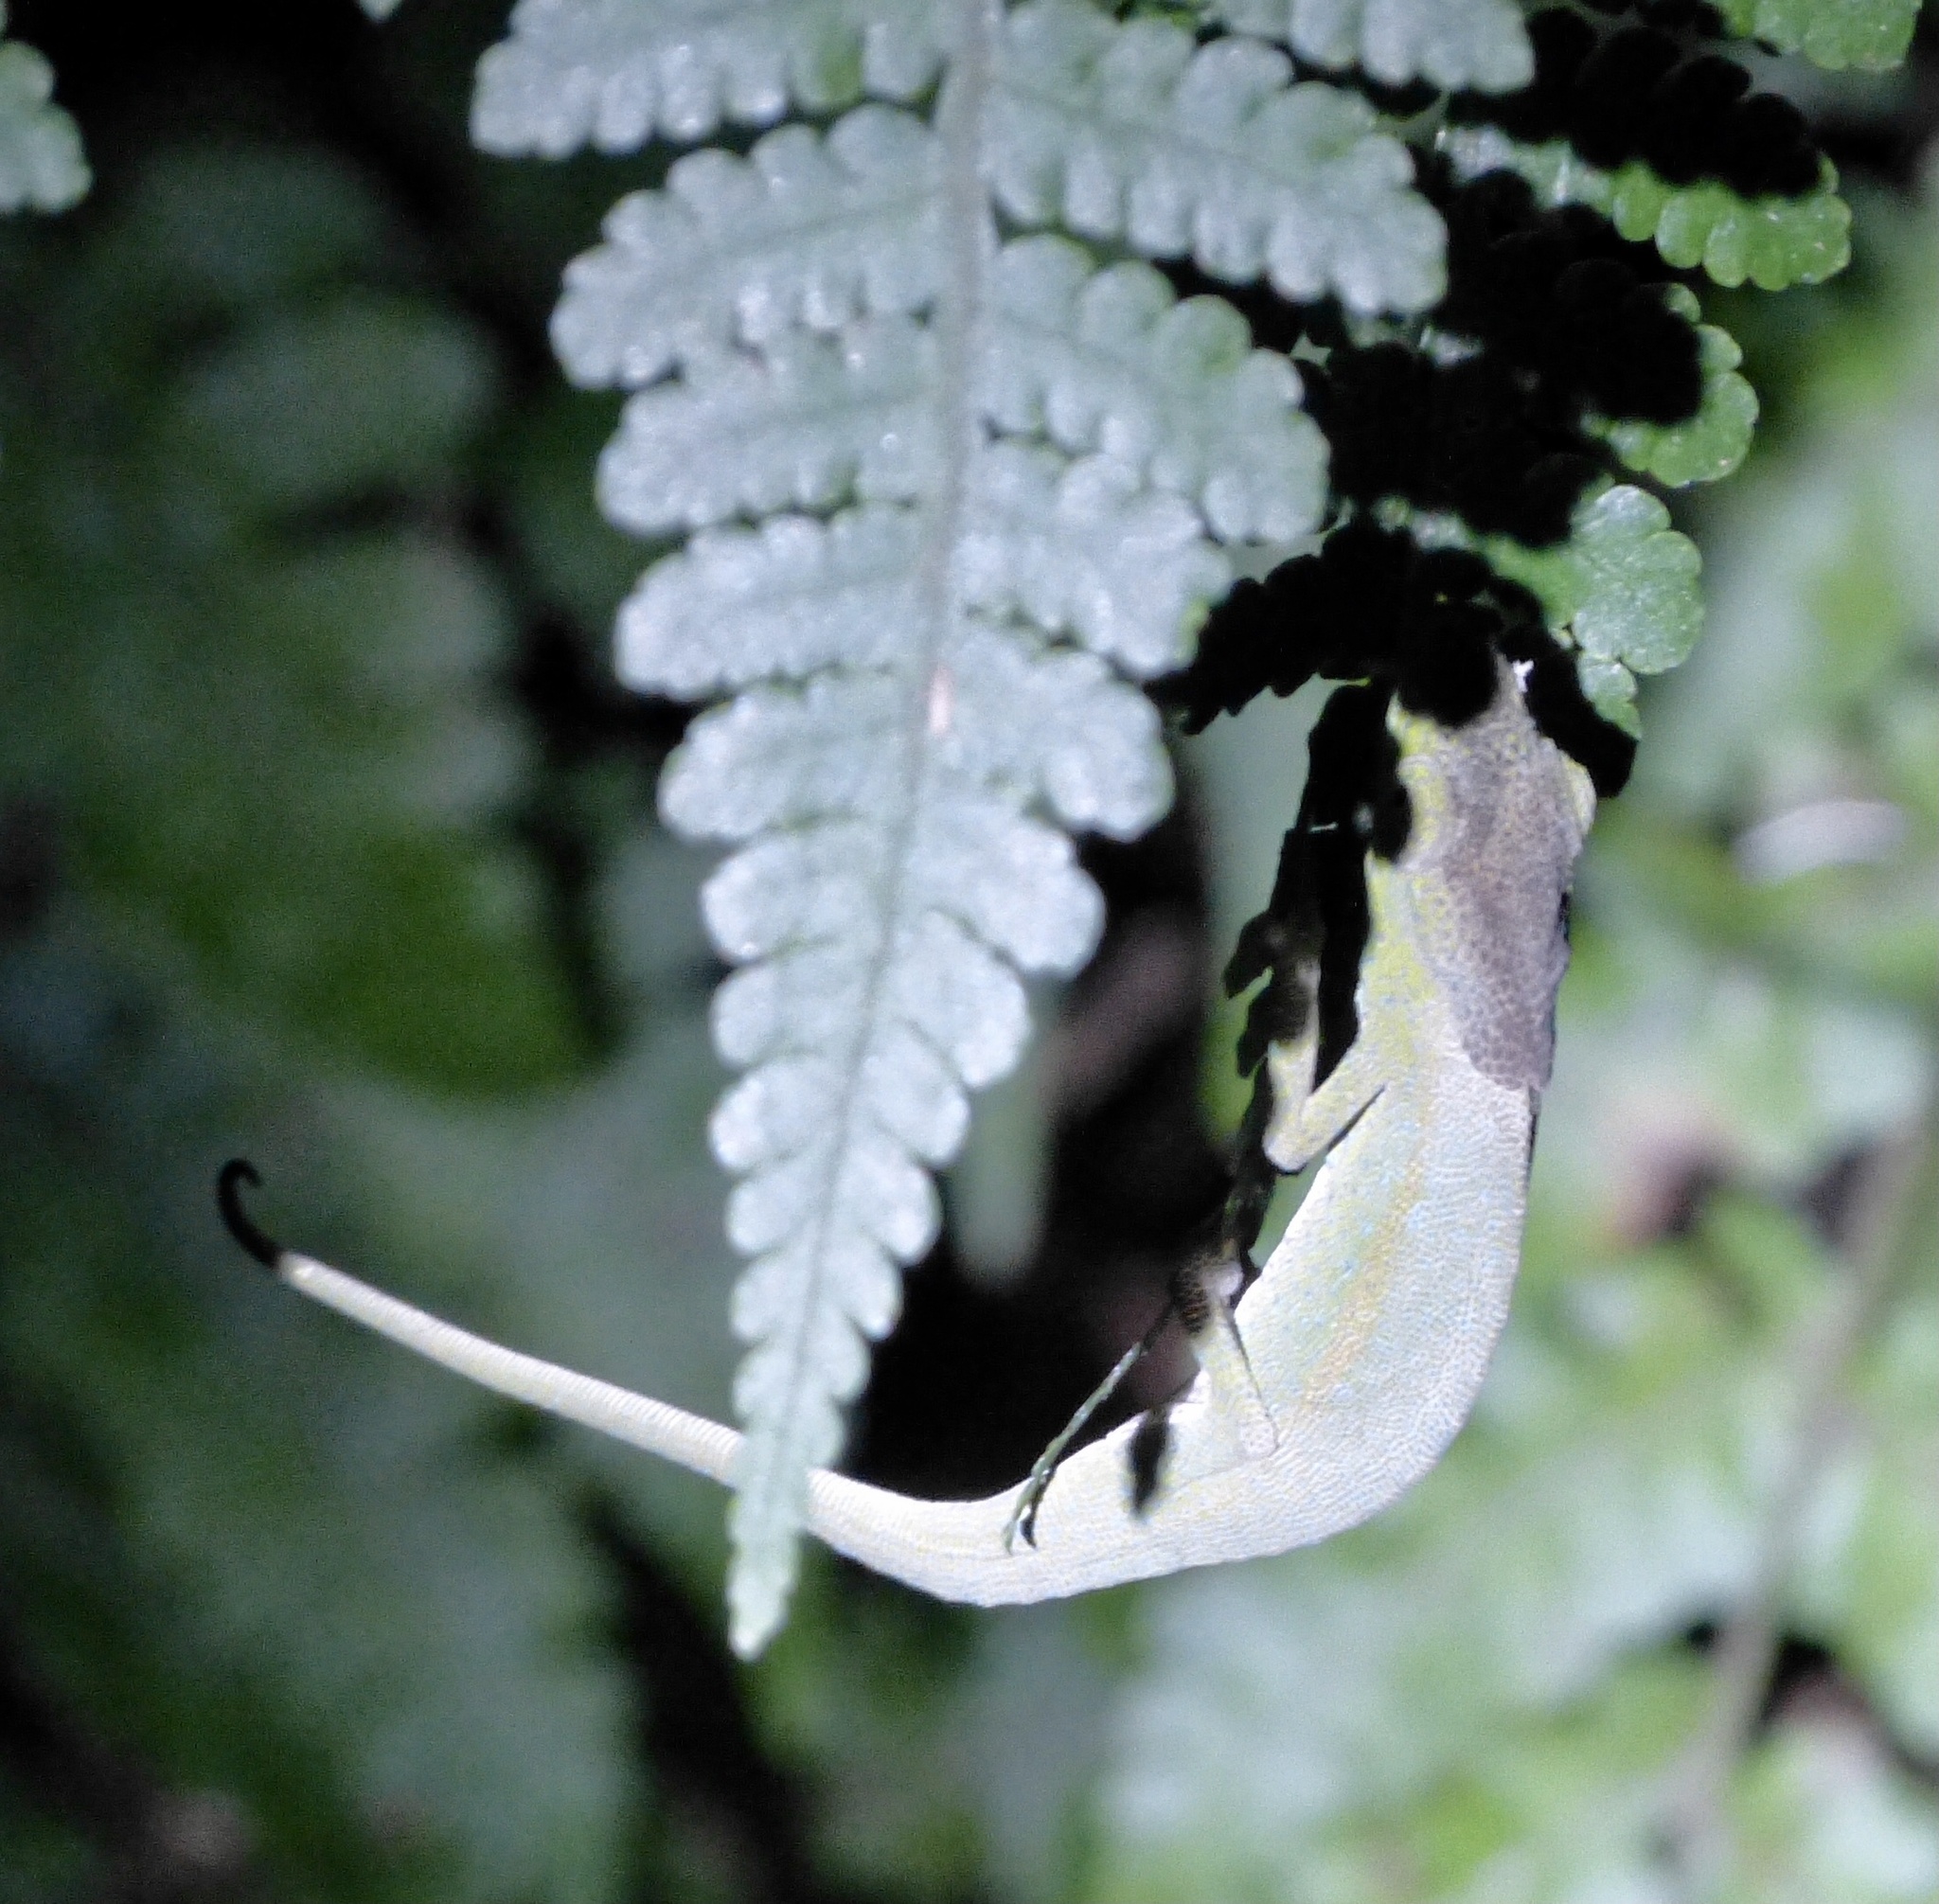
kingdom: Animalia
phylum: Chordata
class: Squamata
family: Chamaeleonidae
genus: Calumma
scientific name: Calumma glawi
